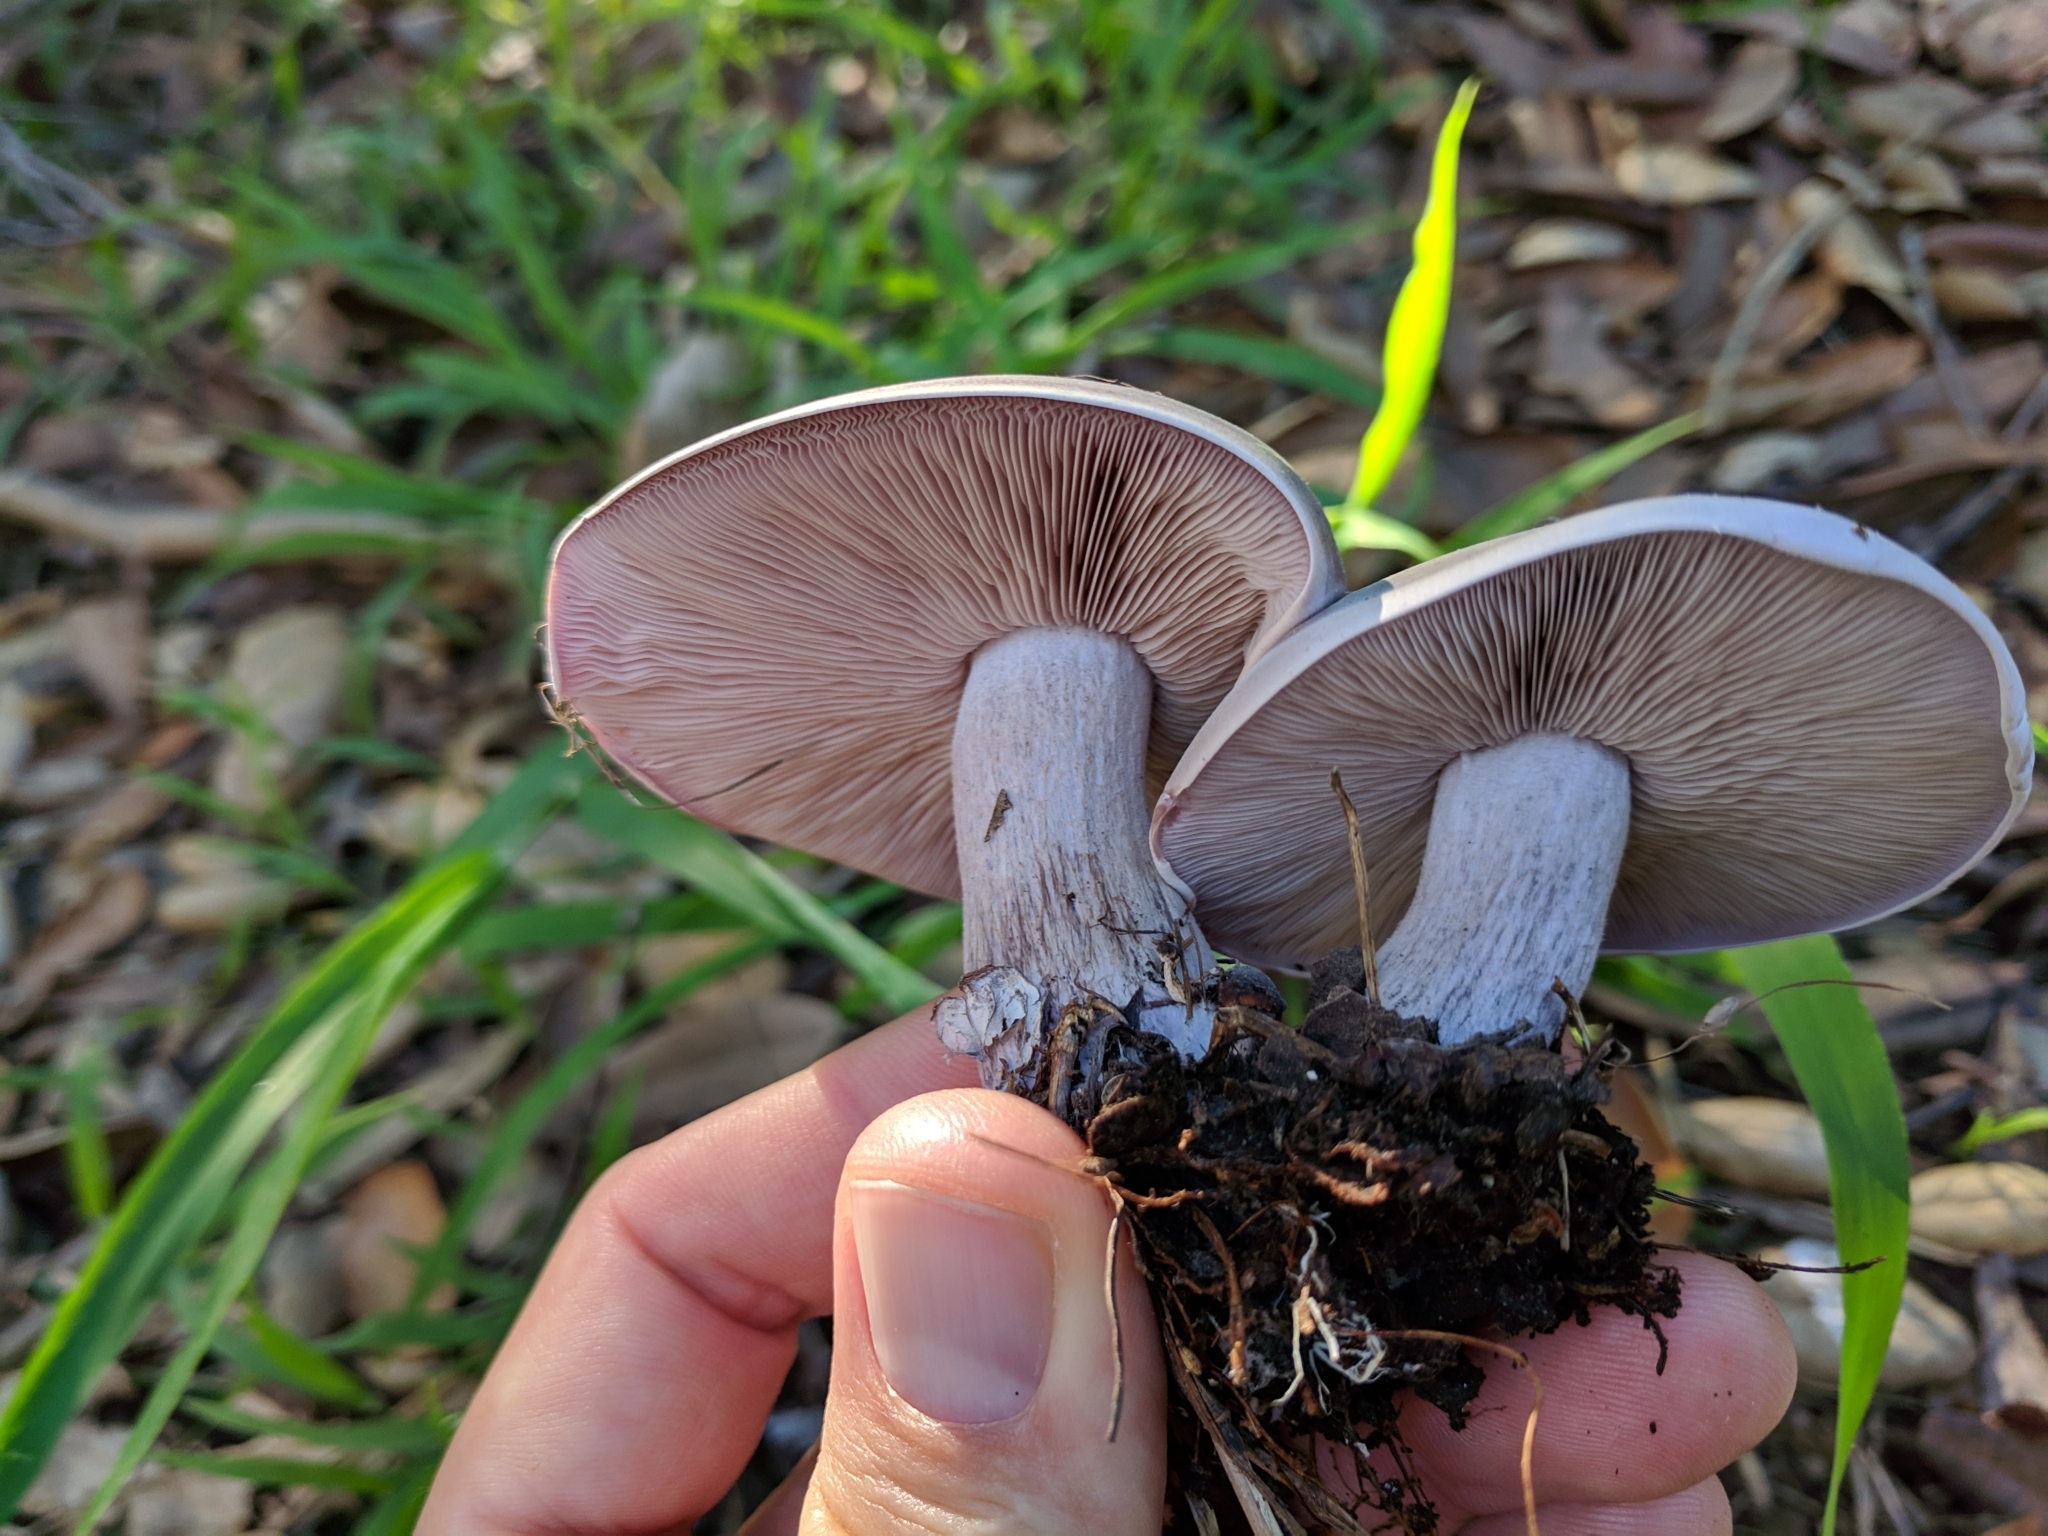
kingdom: Fungi
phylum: Basidiomycota
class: Agaricomycetes
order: Agaricales
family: Tricholomataceae
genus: Collybia
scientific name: Collybia
